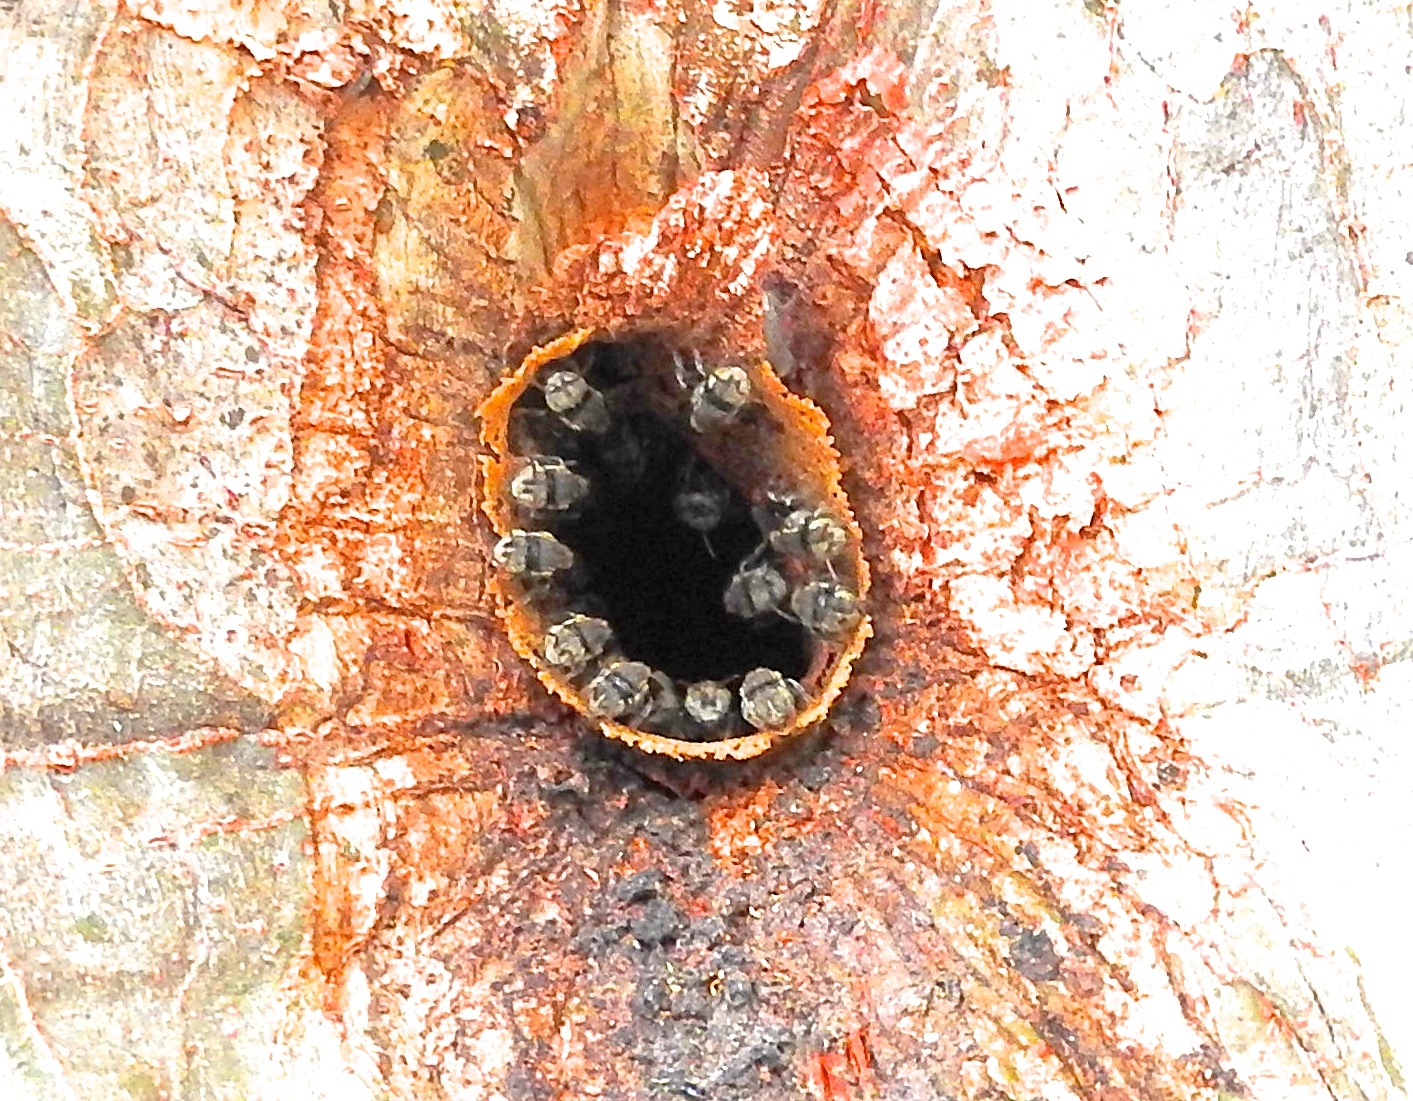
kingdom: Animalia
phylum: Arthropoda
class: Insecta
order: Hymenoptera
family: Apidae
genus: Nannotrigona
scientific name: Nannotrigona perilampoides
